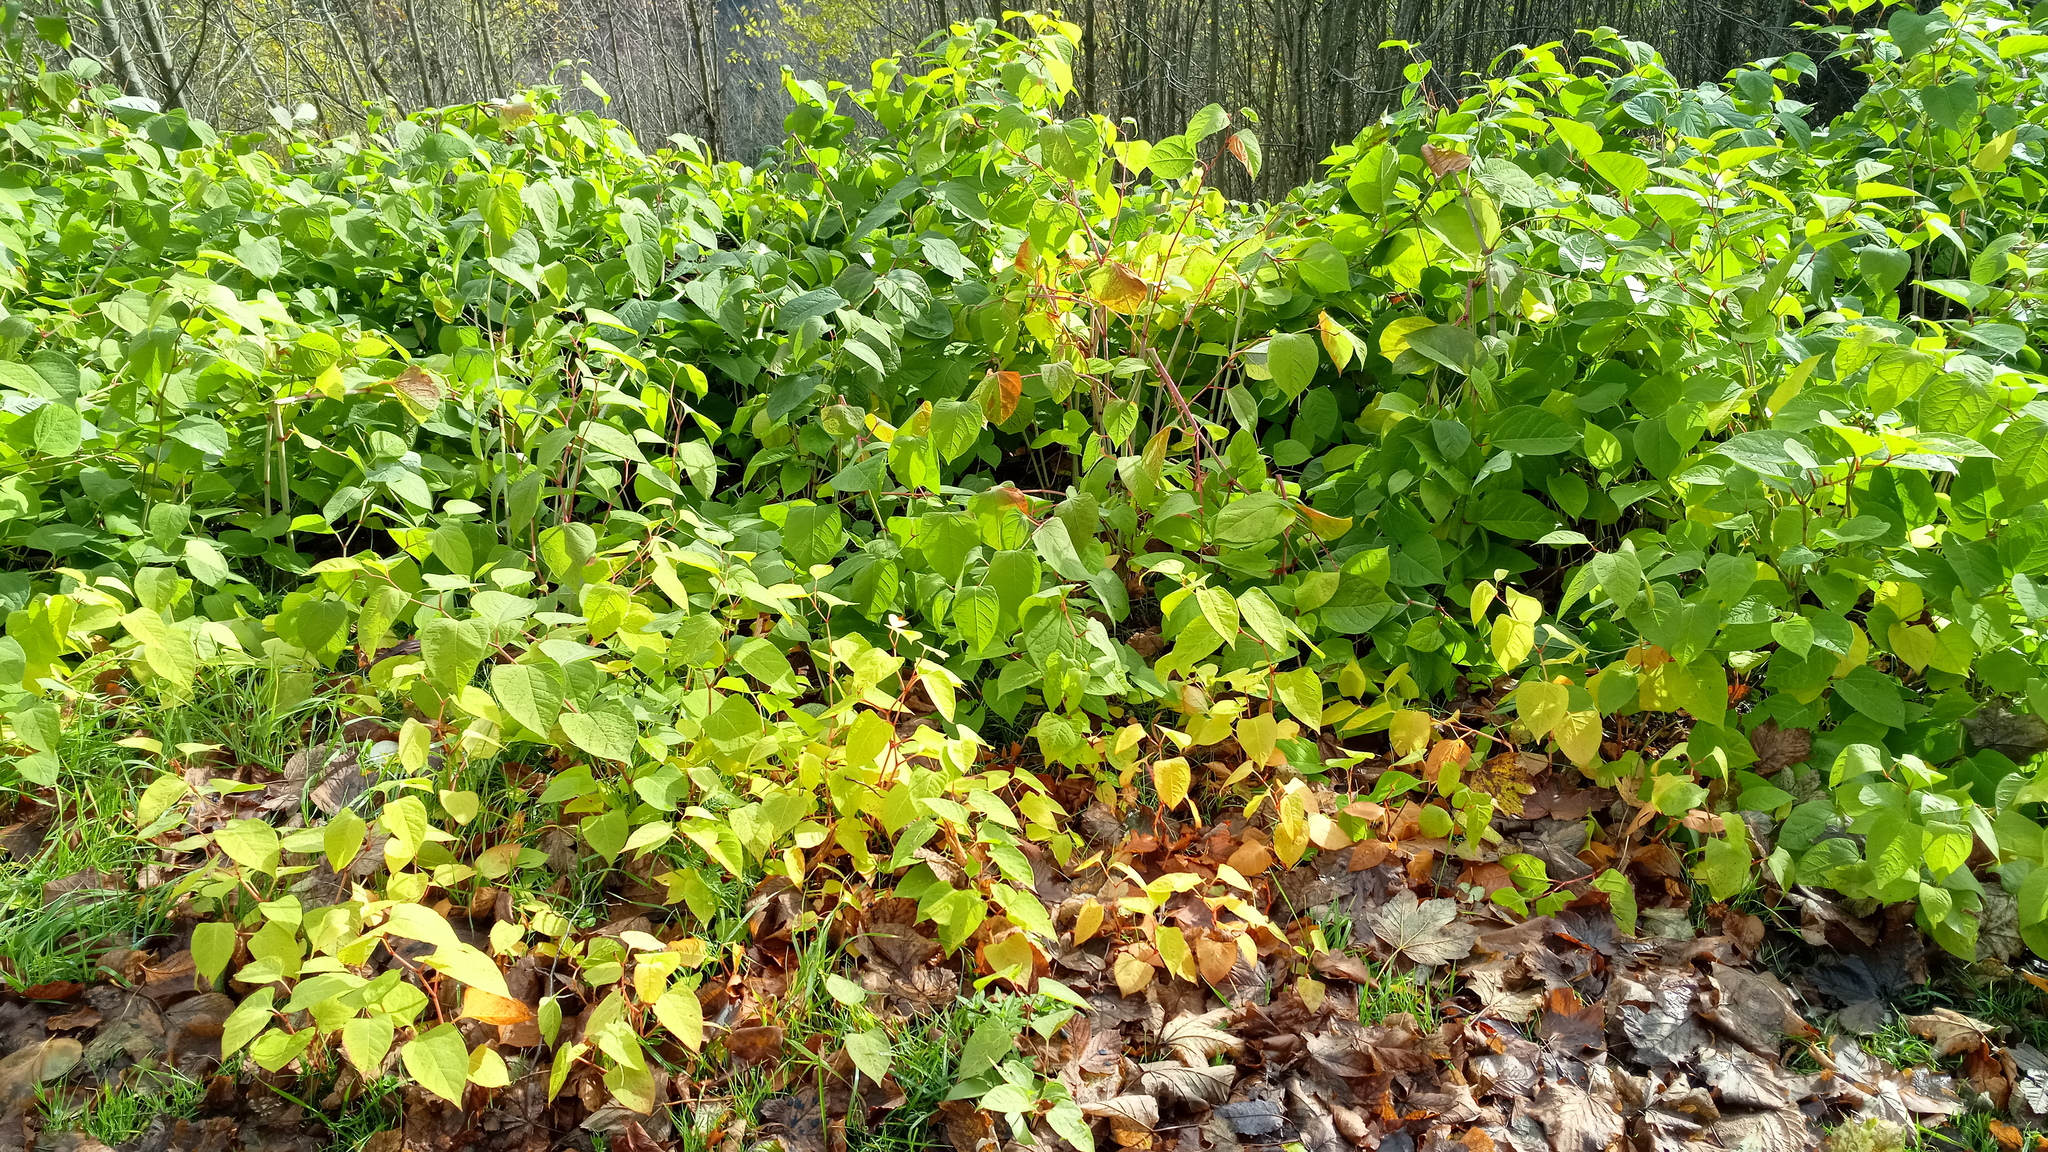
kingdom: Plantae
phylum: Tracheophyta
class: Magnoliopsida
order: Caryophyllales
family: Polygonaceae
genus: Reynoutria
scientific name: Reynoutria bohemica
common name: Bohemian knotweed
